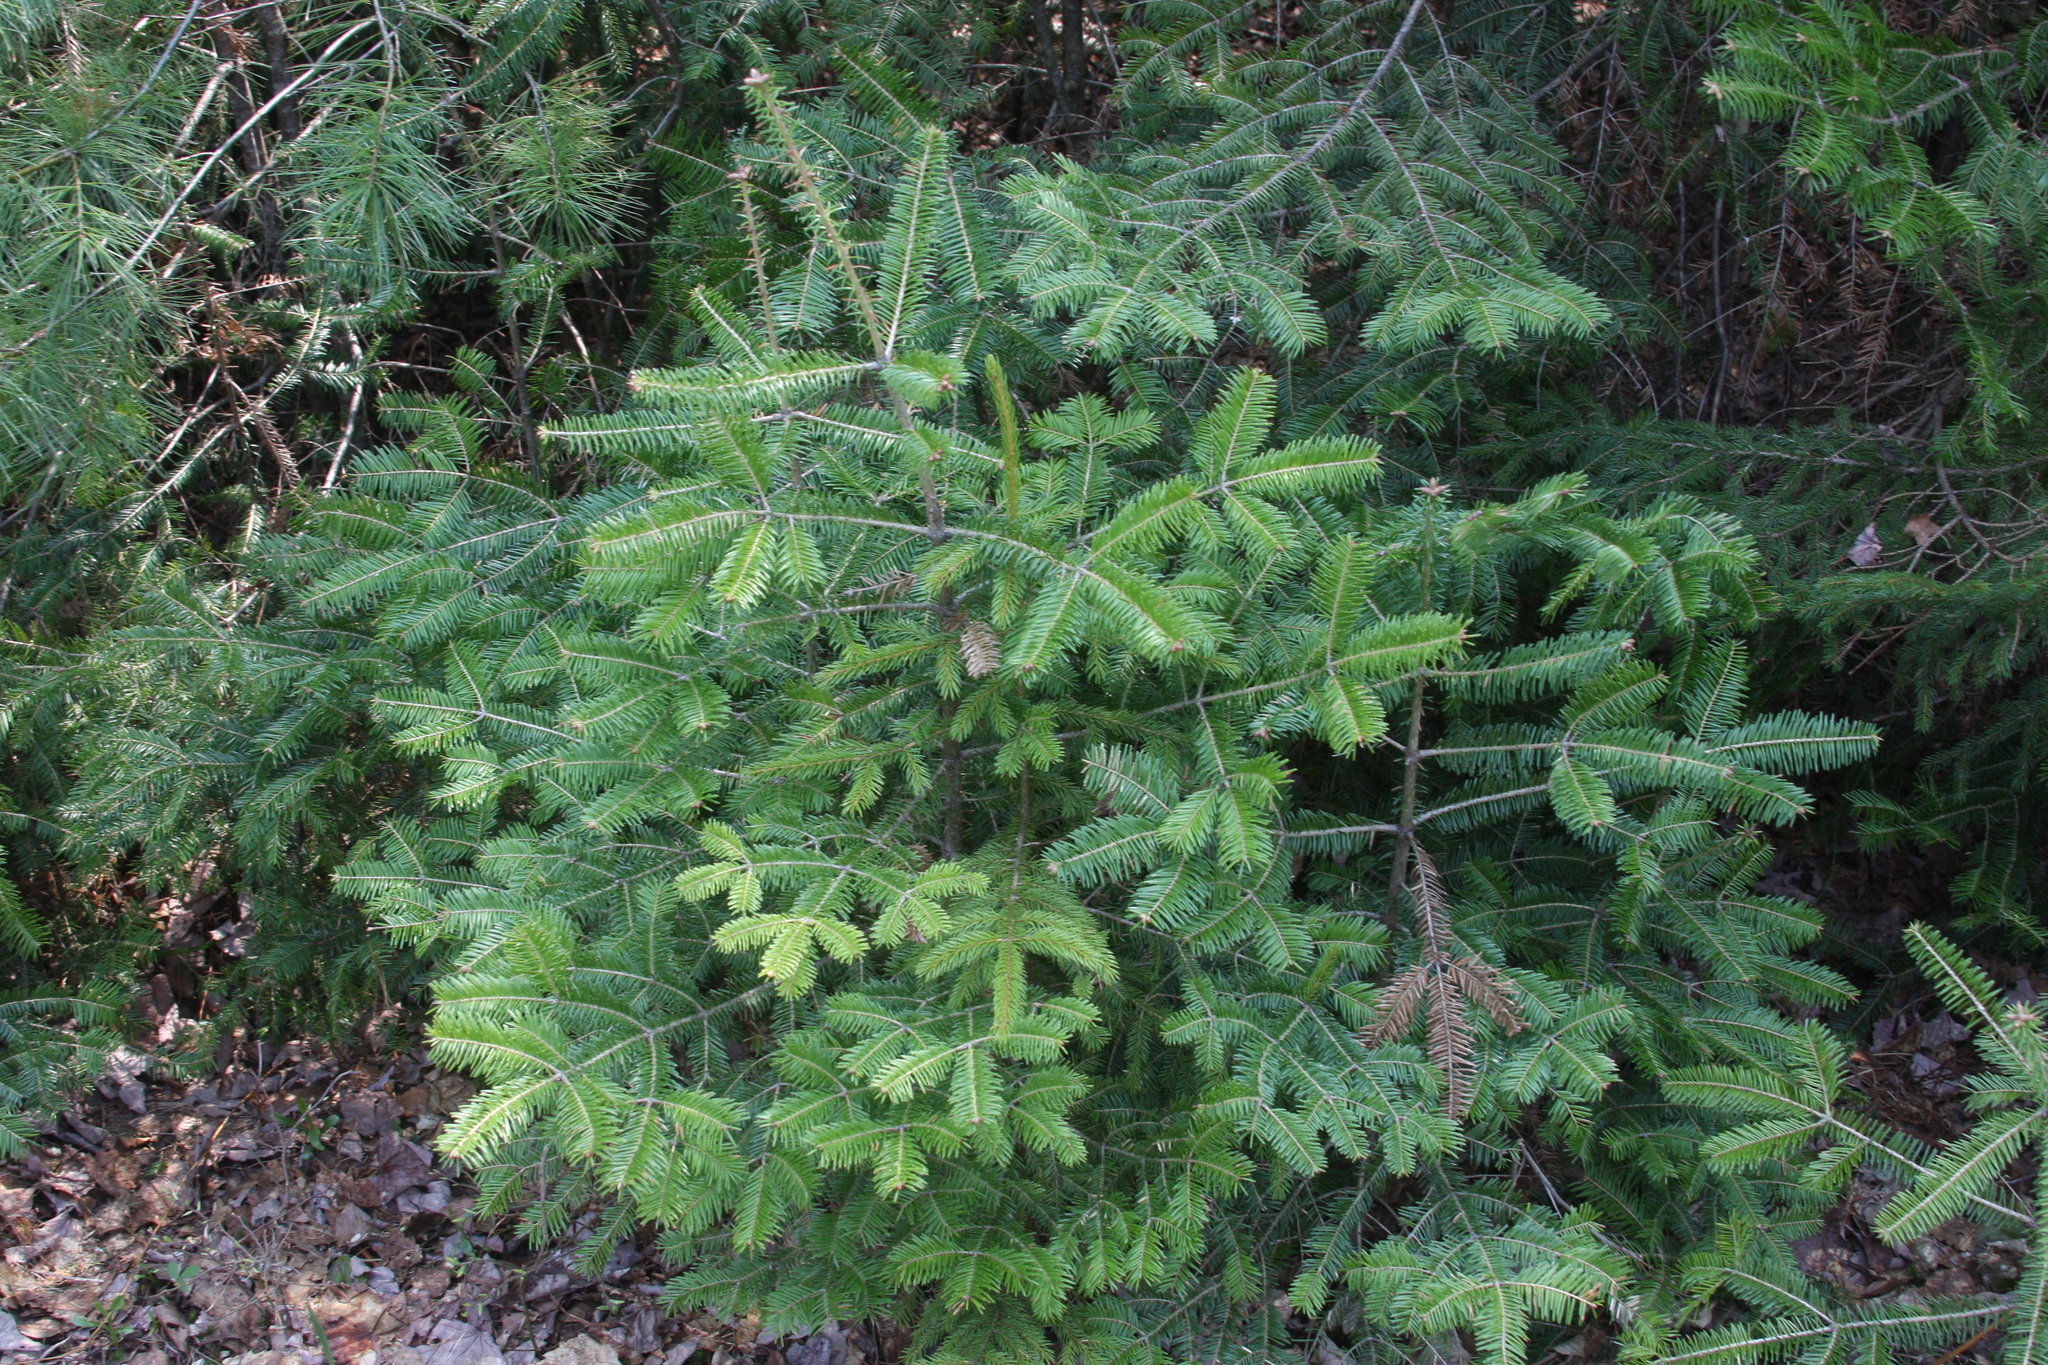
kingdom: Plantae
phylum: Tracheophyta
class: Pinopsida
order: Pinales
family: Pinaceae
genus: Abies
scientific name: Abies balsamea
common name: Balsam fir
